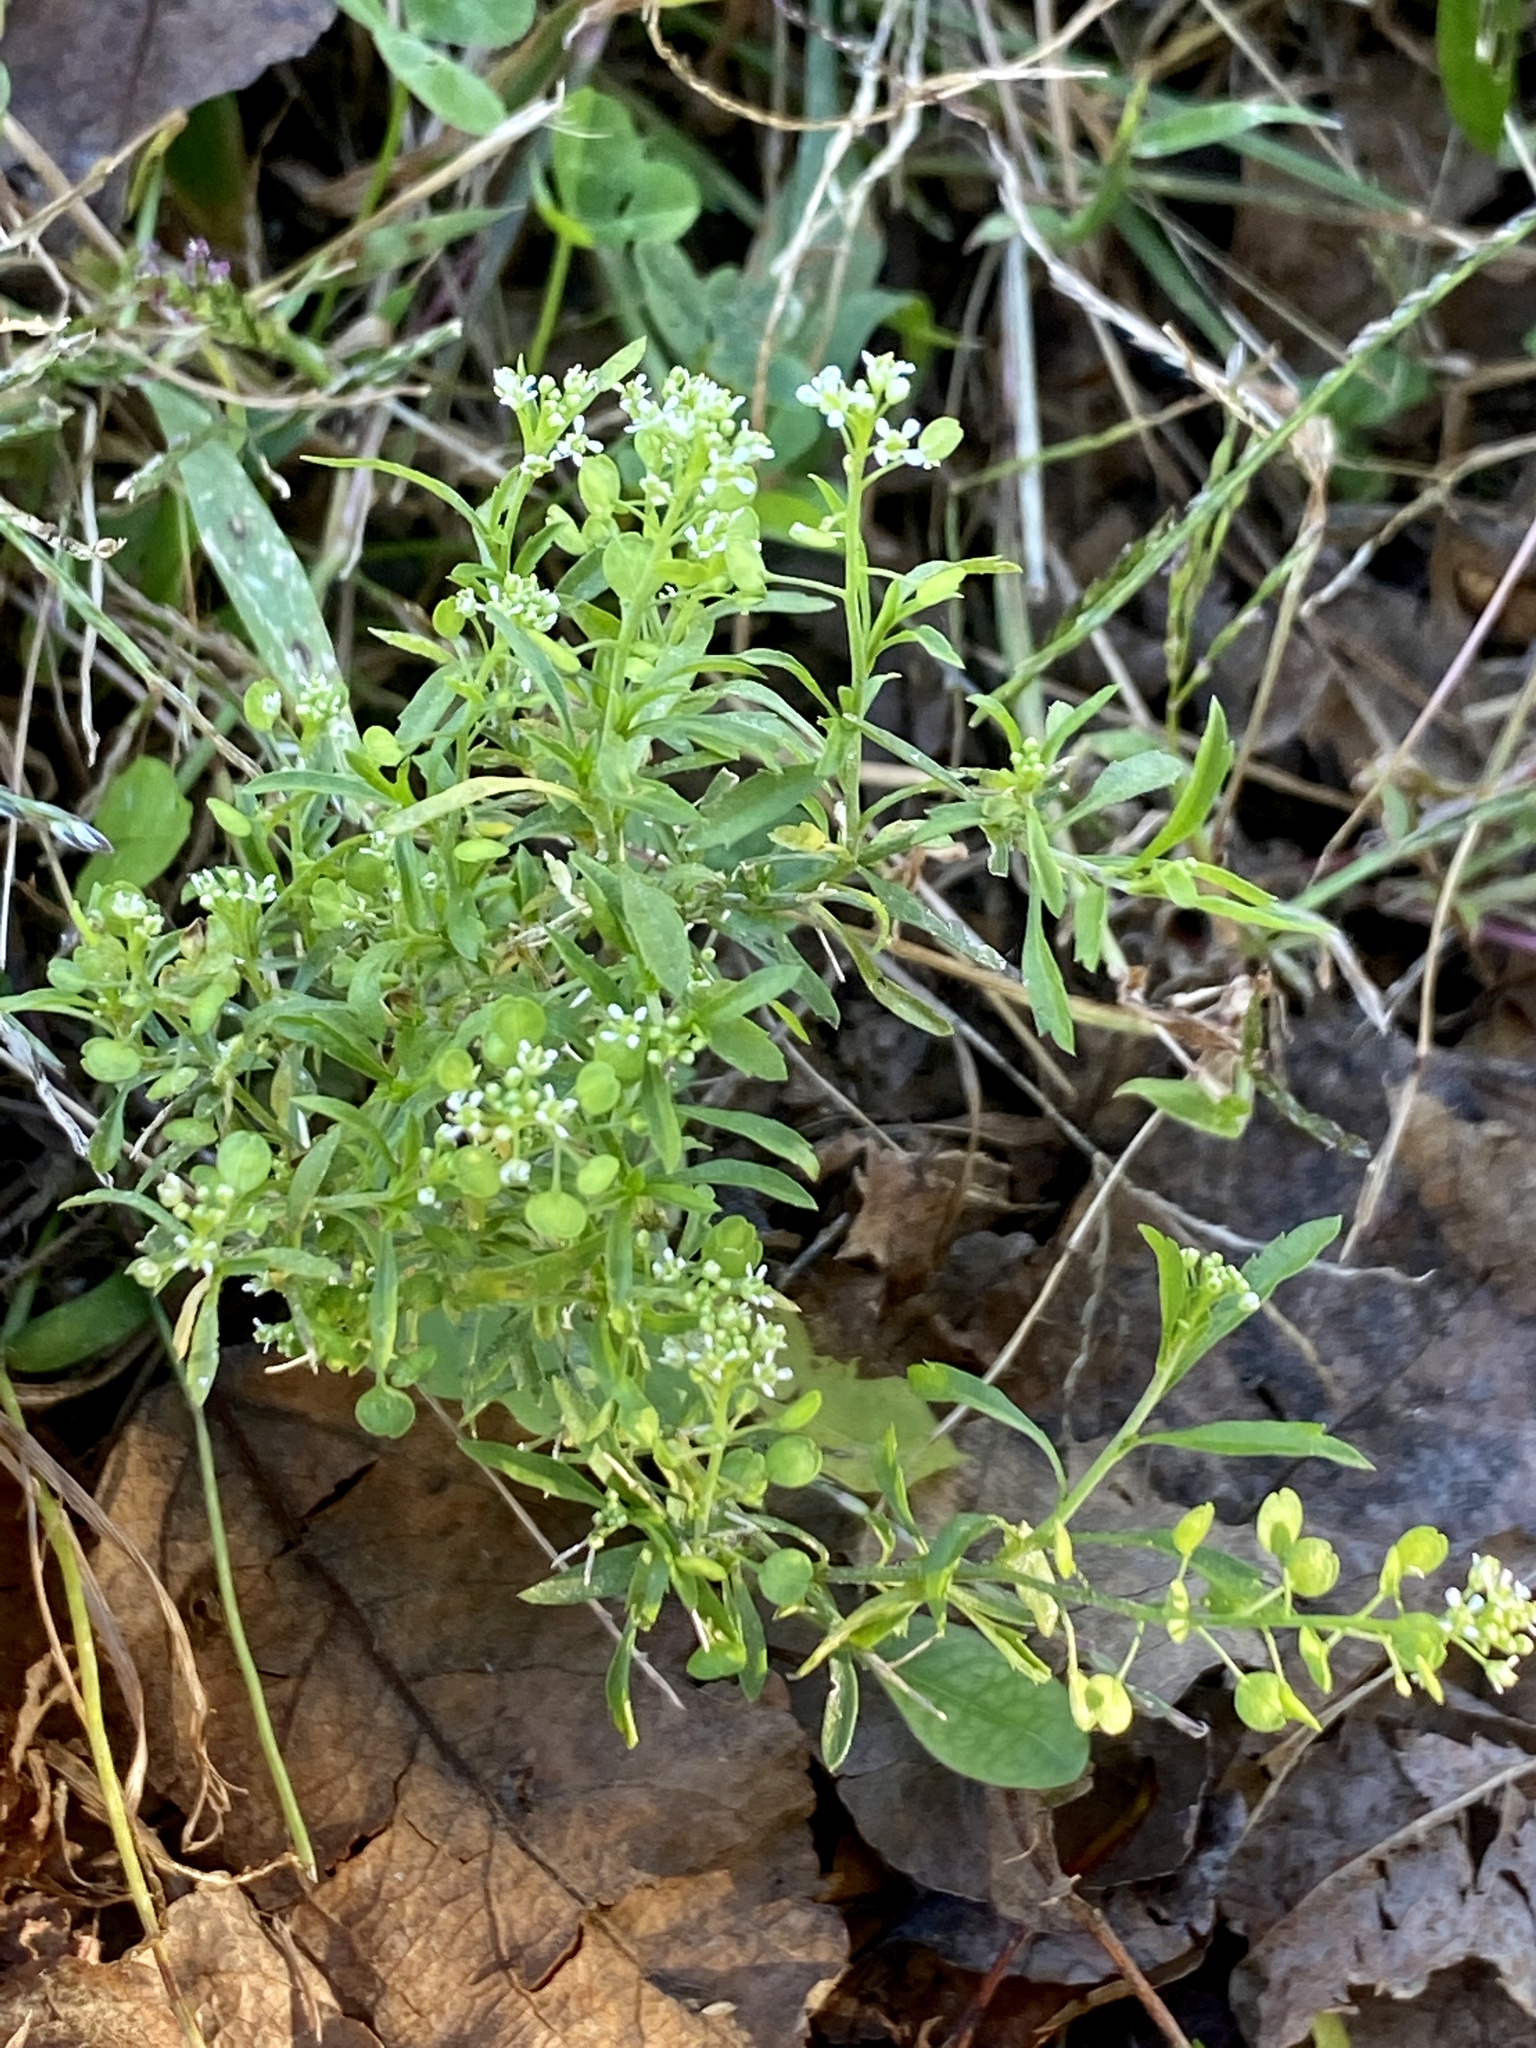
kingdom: Plantae
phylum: Tracheophyta
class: Magnoliopsida
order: Brassicales
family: Brassicaceae
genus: Lepidium
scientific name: Lepidium virginicum
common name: Least pepperwort
